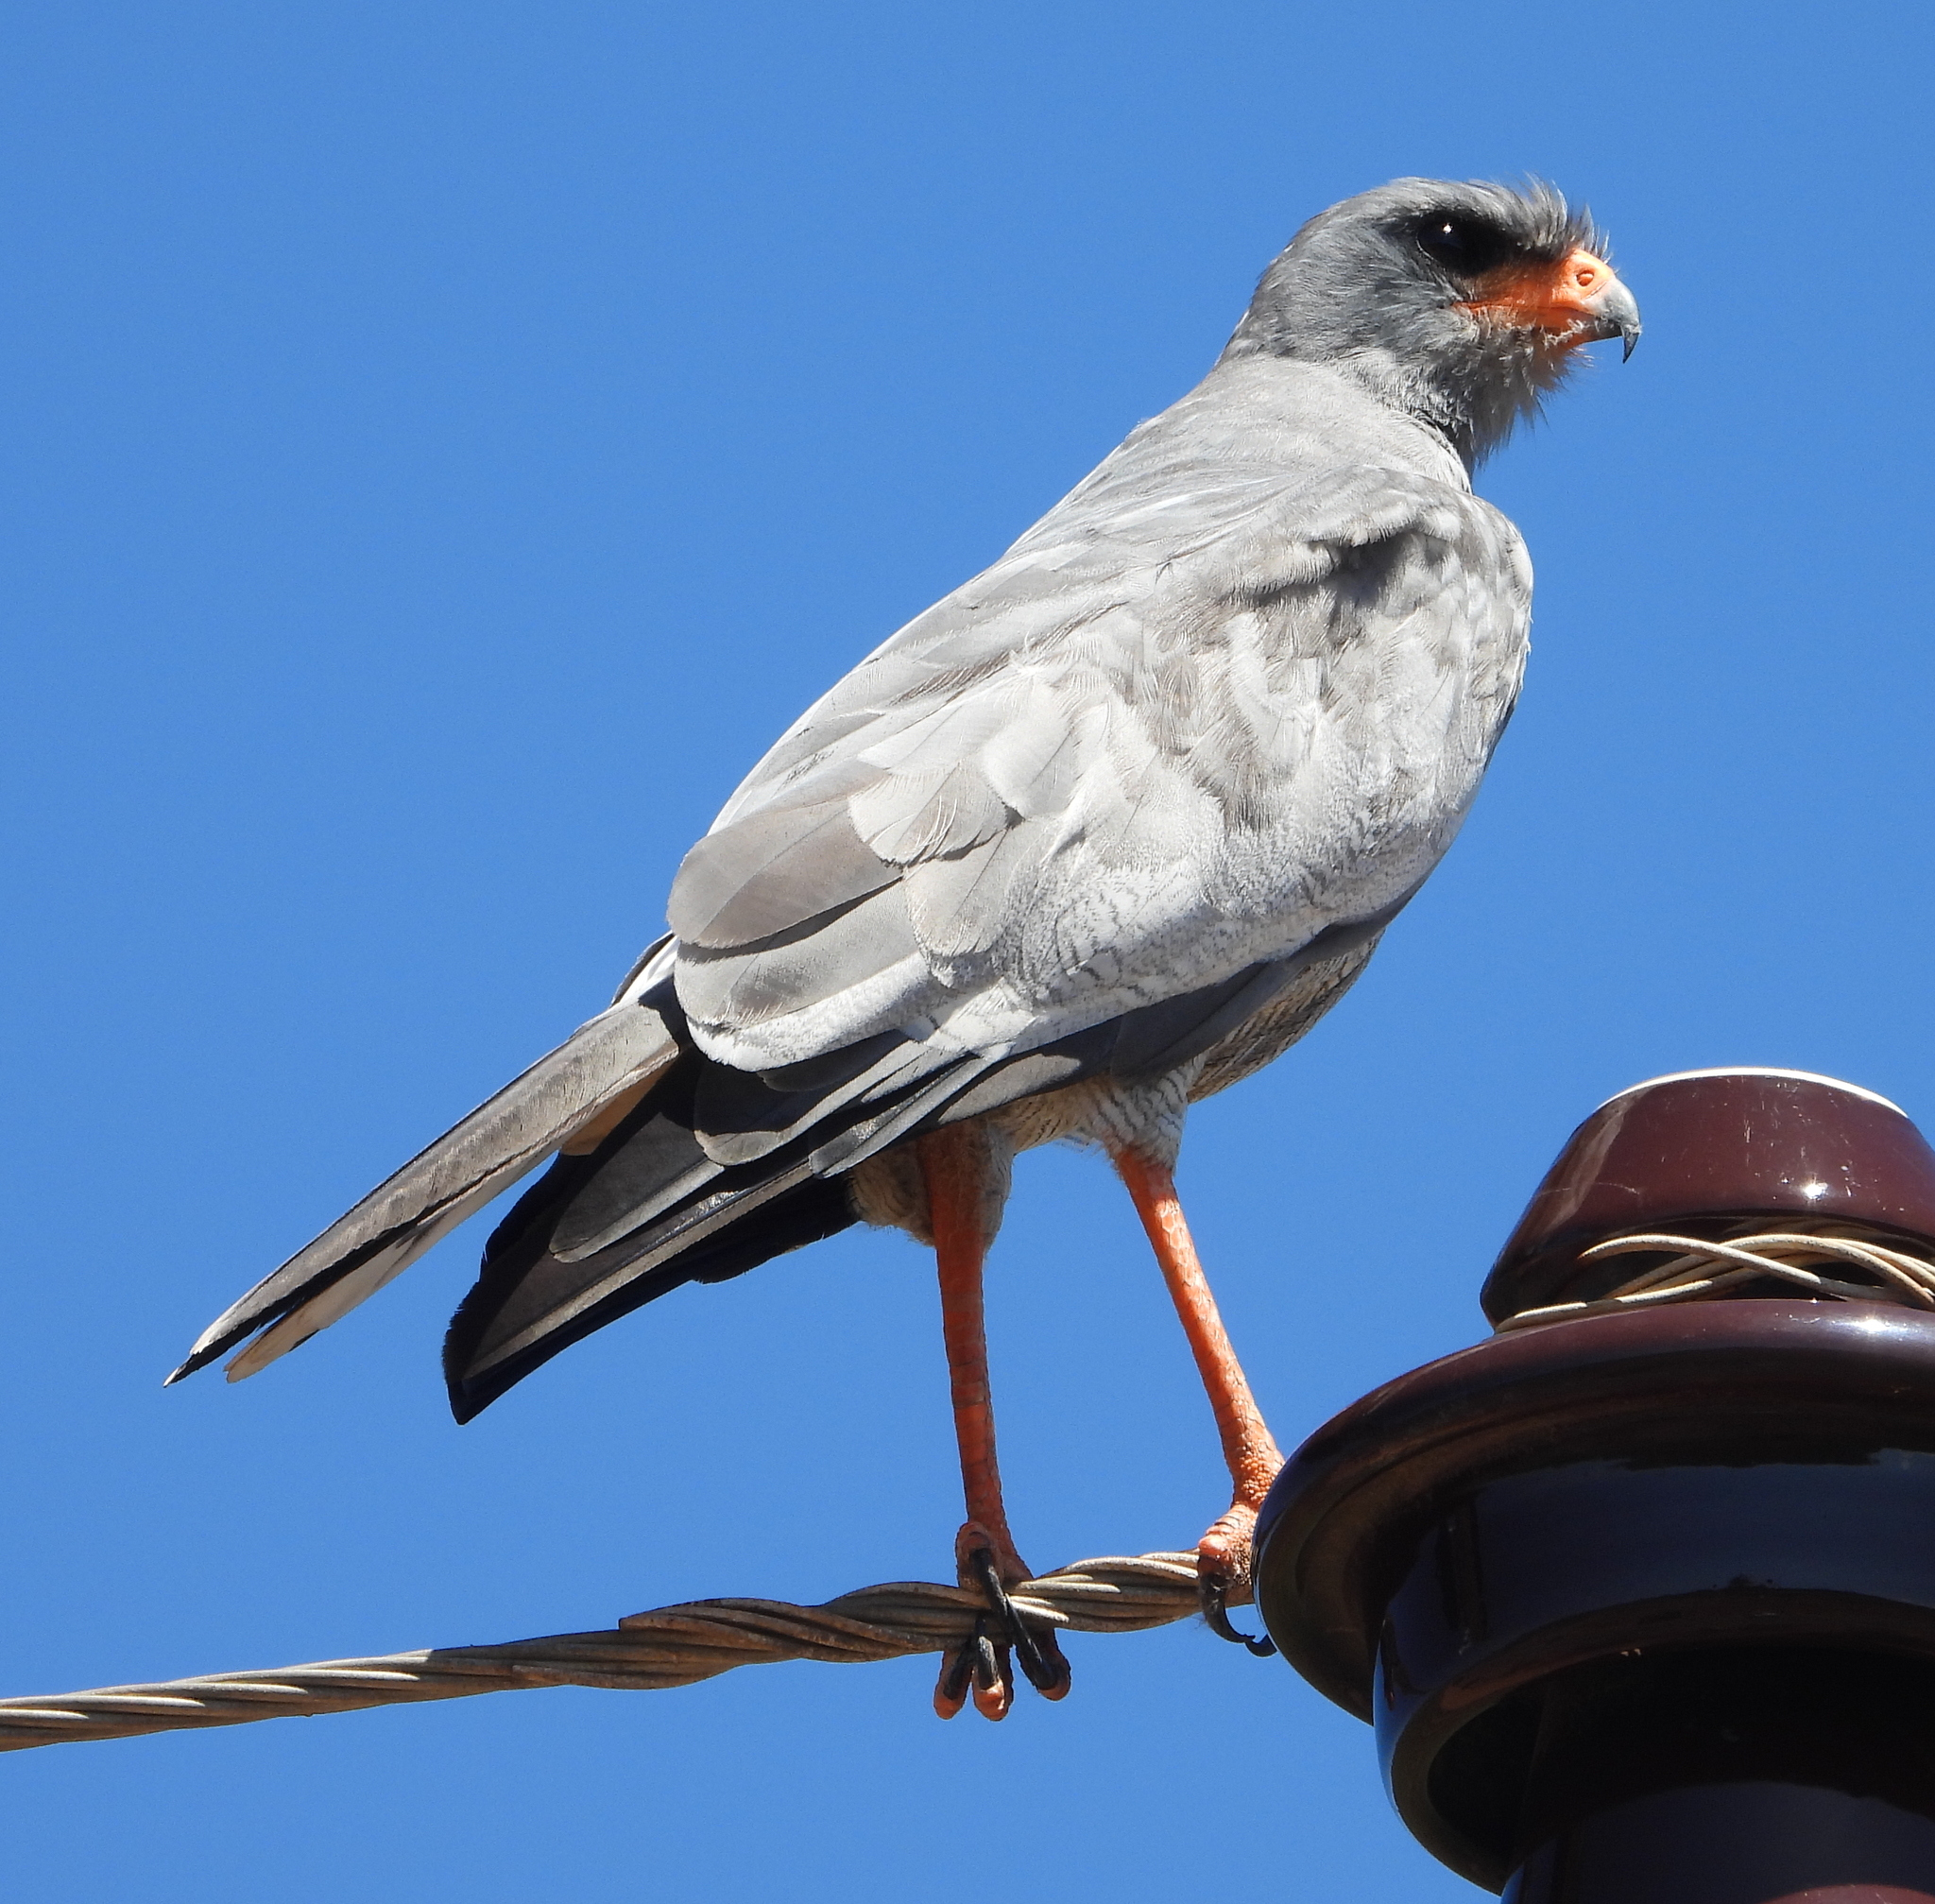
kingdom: Animalia
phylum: Chordata
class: Aves
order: Accipitriformes
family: Accipitridae
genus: Melierax
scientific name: Melierax canorus
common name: Pale chanting-goshawk
